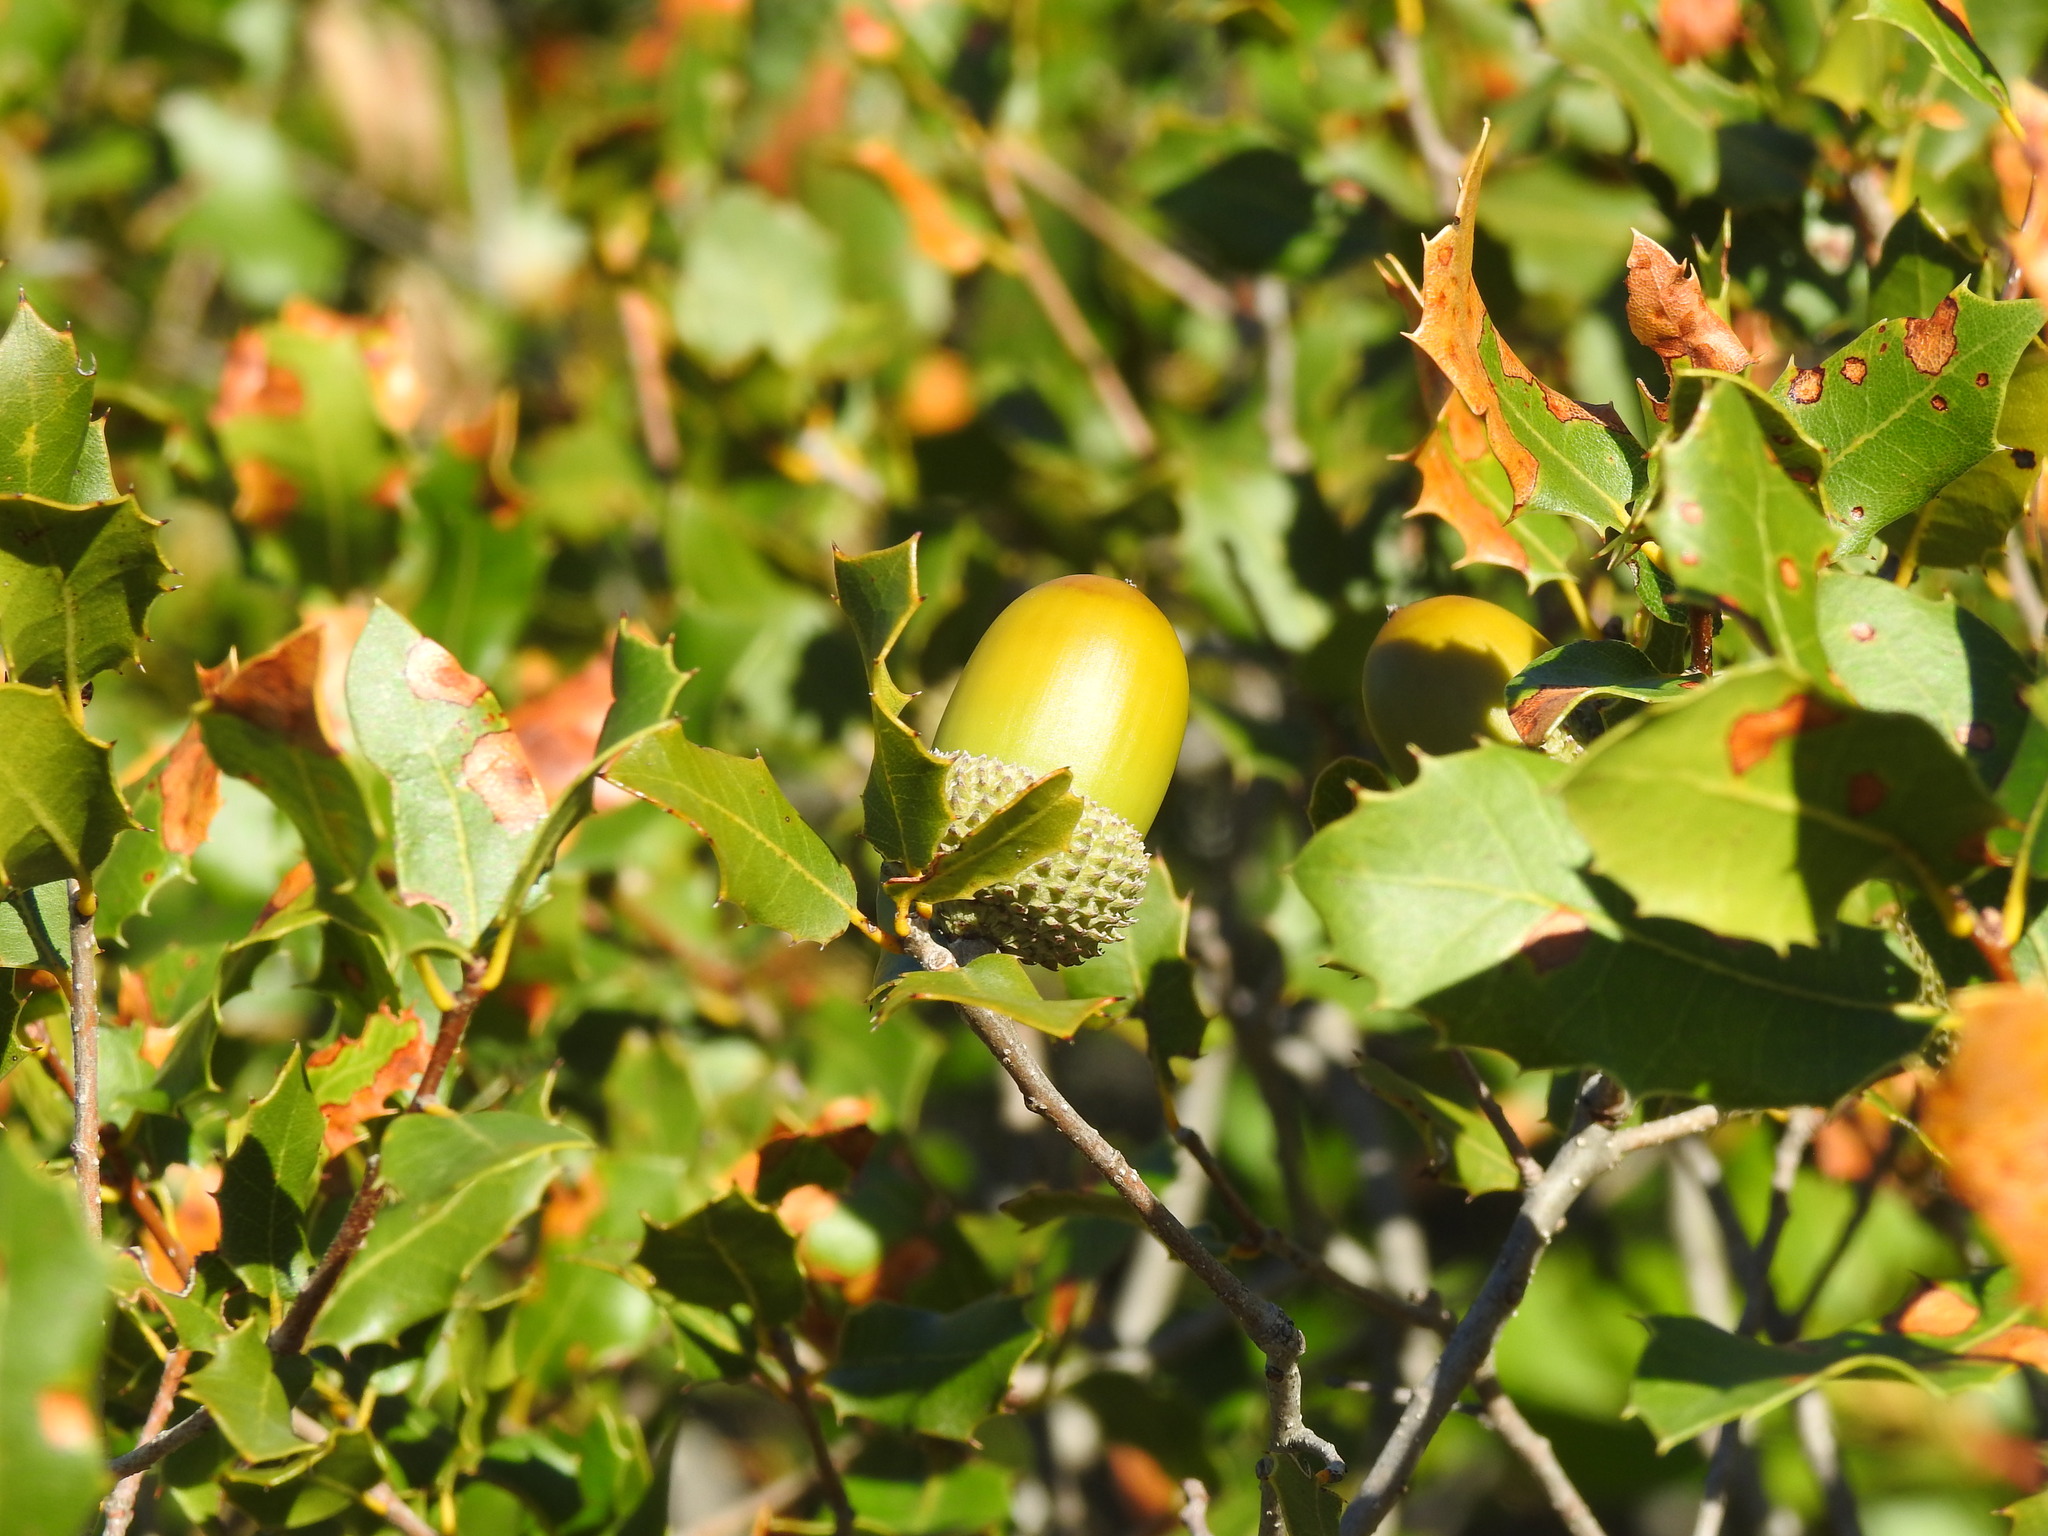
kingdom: Plantae
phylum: Tracheophyta
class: Magnoliopsida
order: Fagales
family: Fagaceae
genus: Quercus
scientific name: Quercus coccifera
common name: Kermes oak
